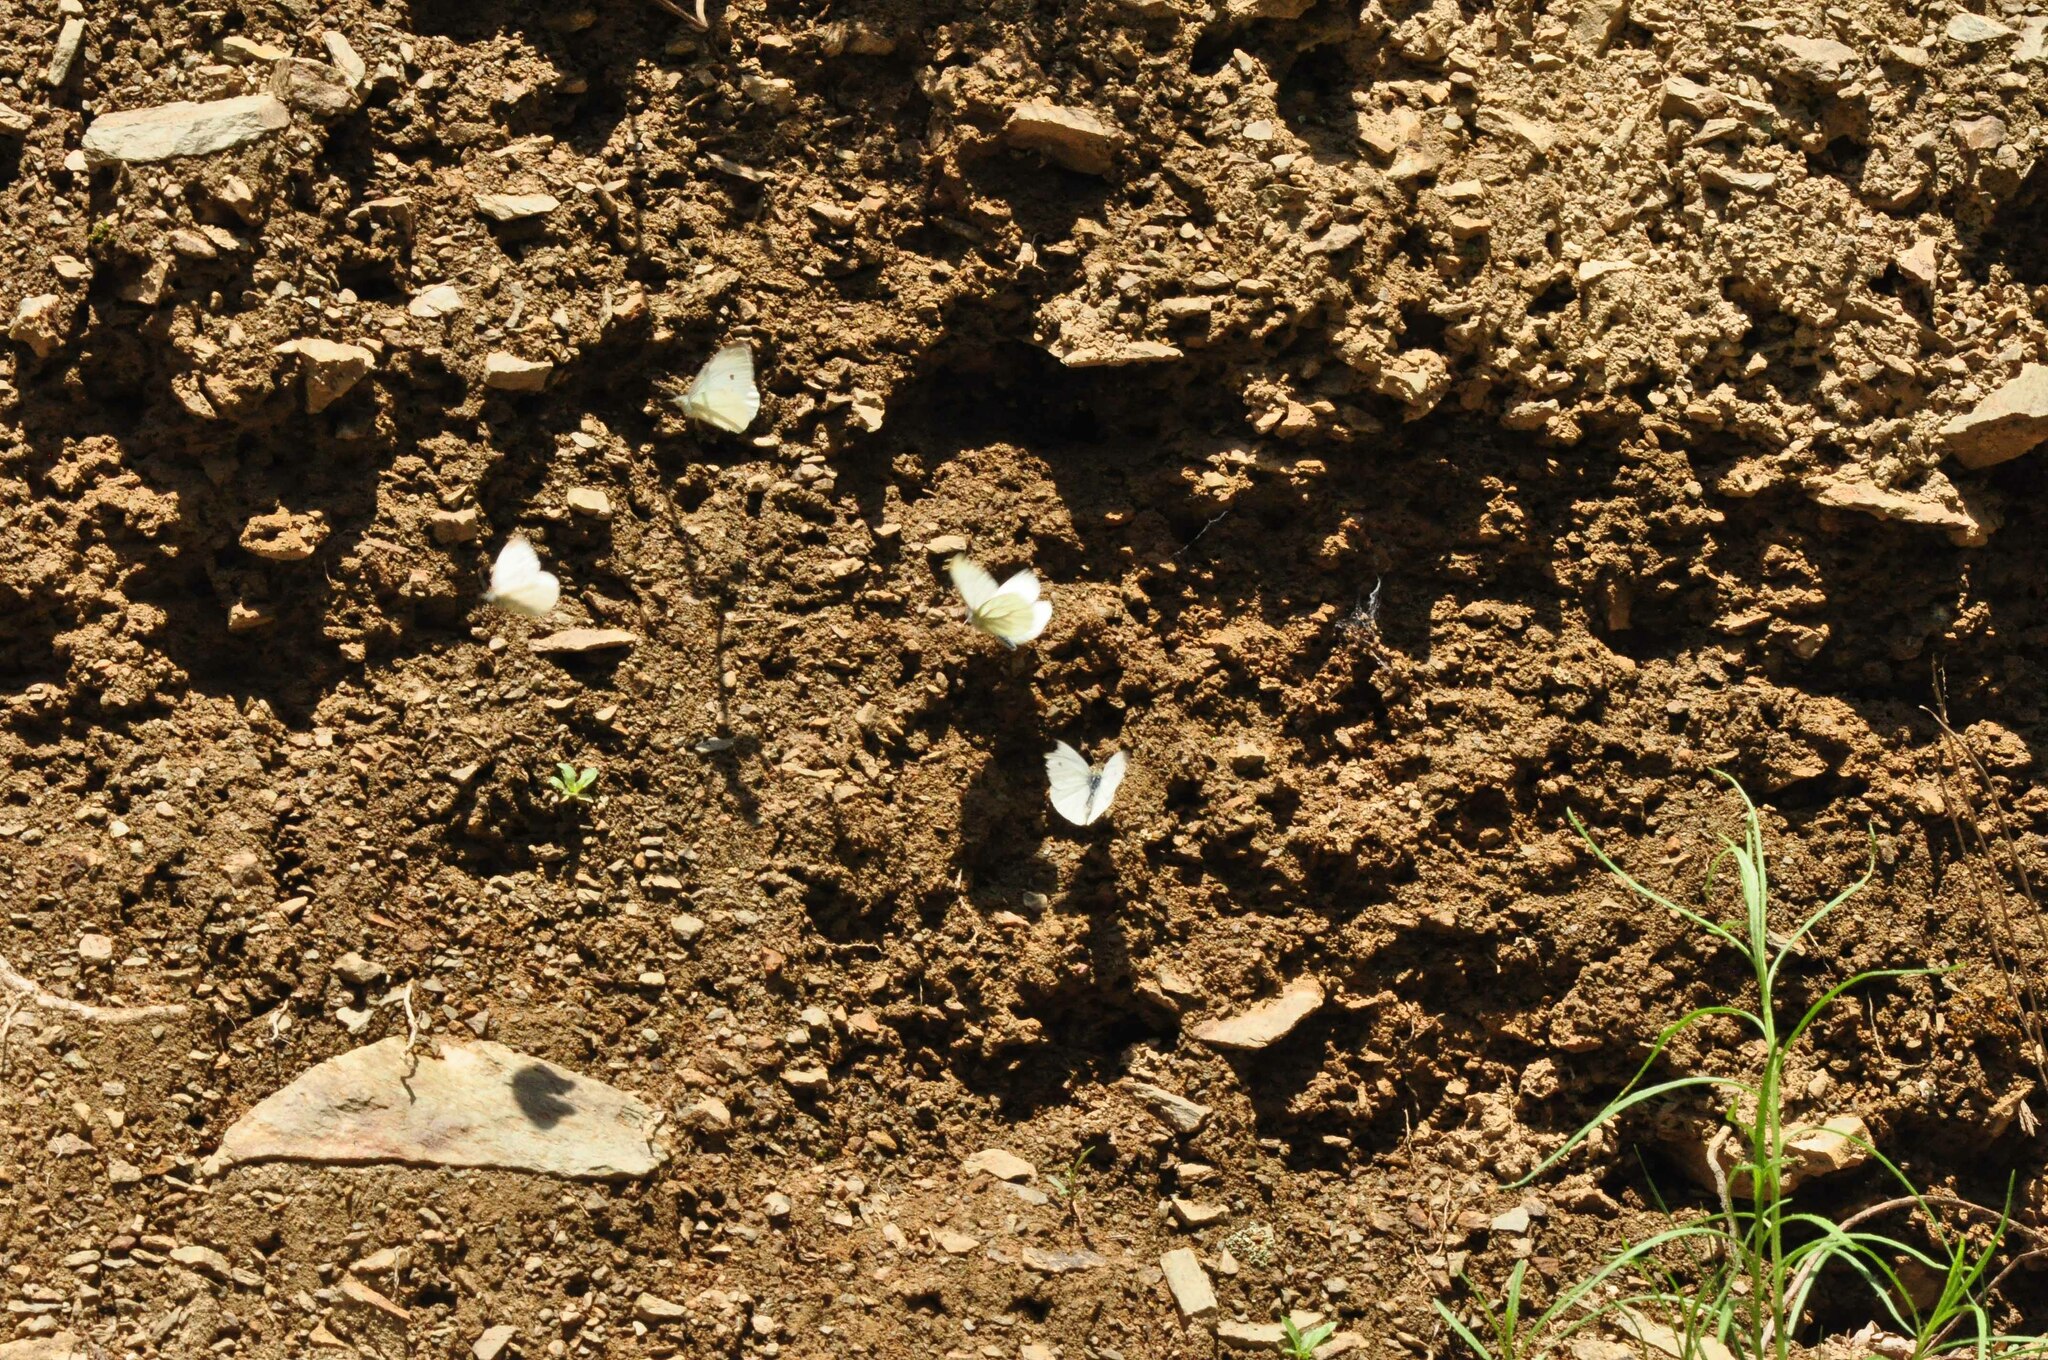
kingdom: Animalia
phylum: Arthropoda
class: Insecta
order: Lepidoptera
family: Pieridae
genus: Pieris
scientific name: Pieris napi
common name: Green-veined white
